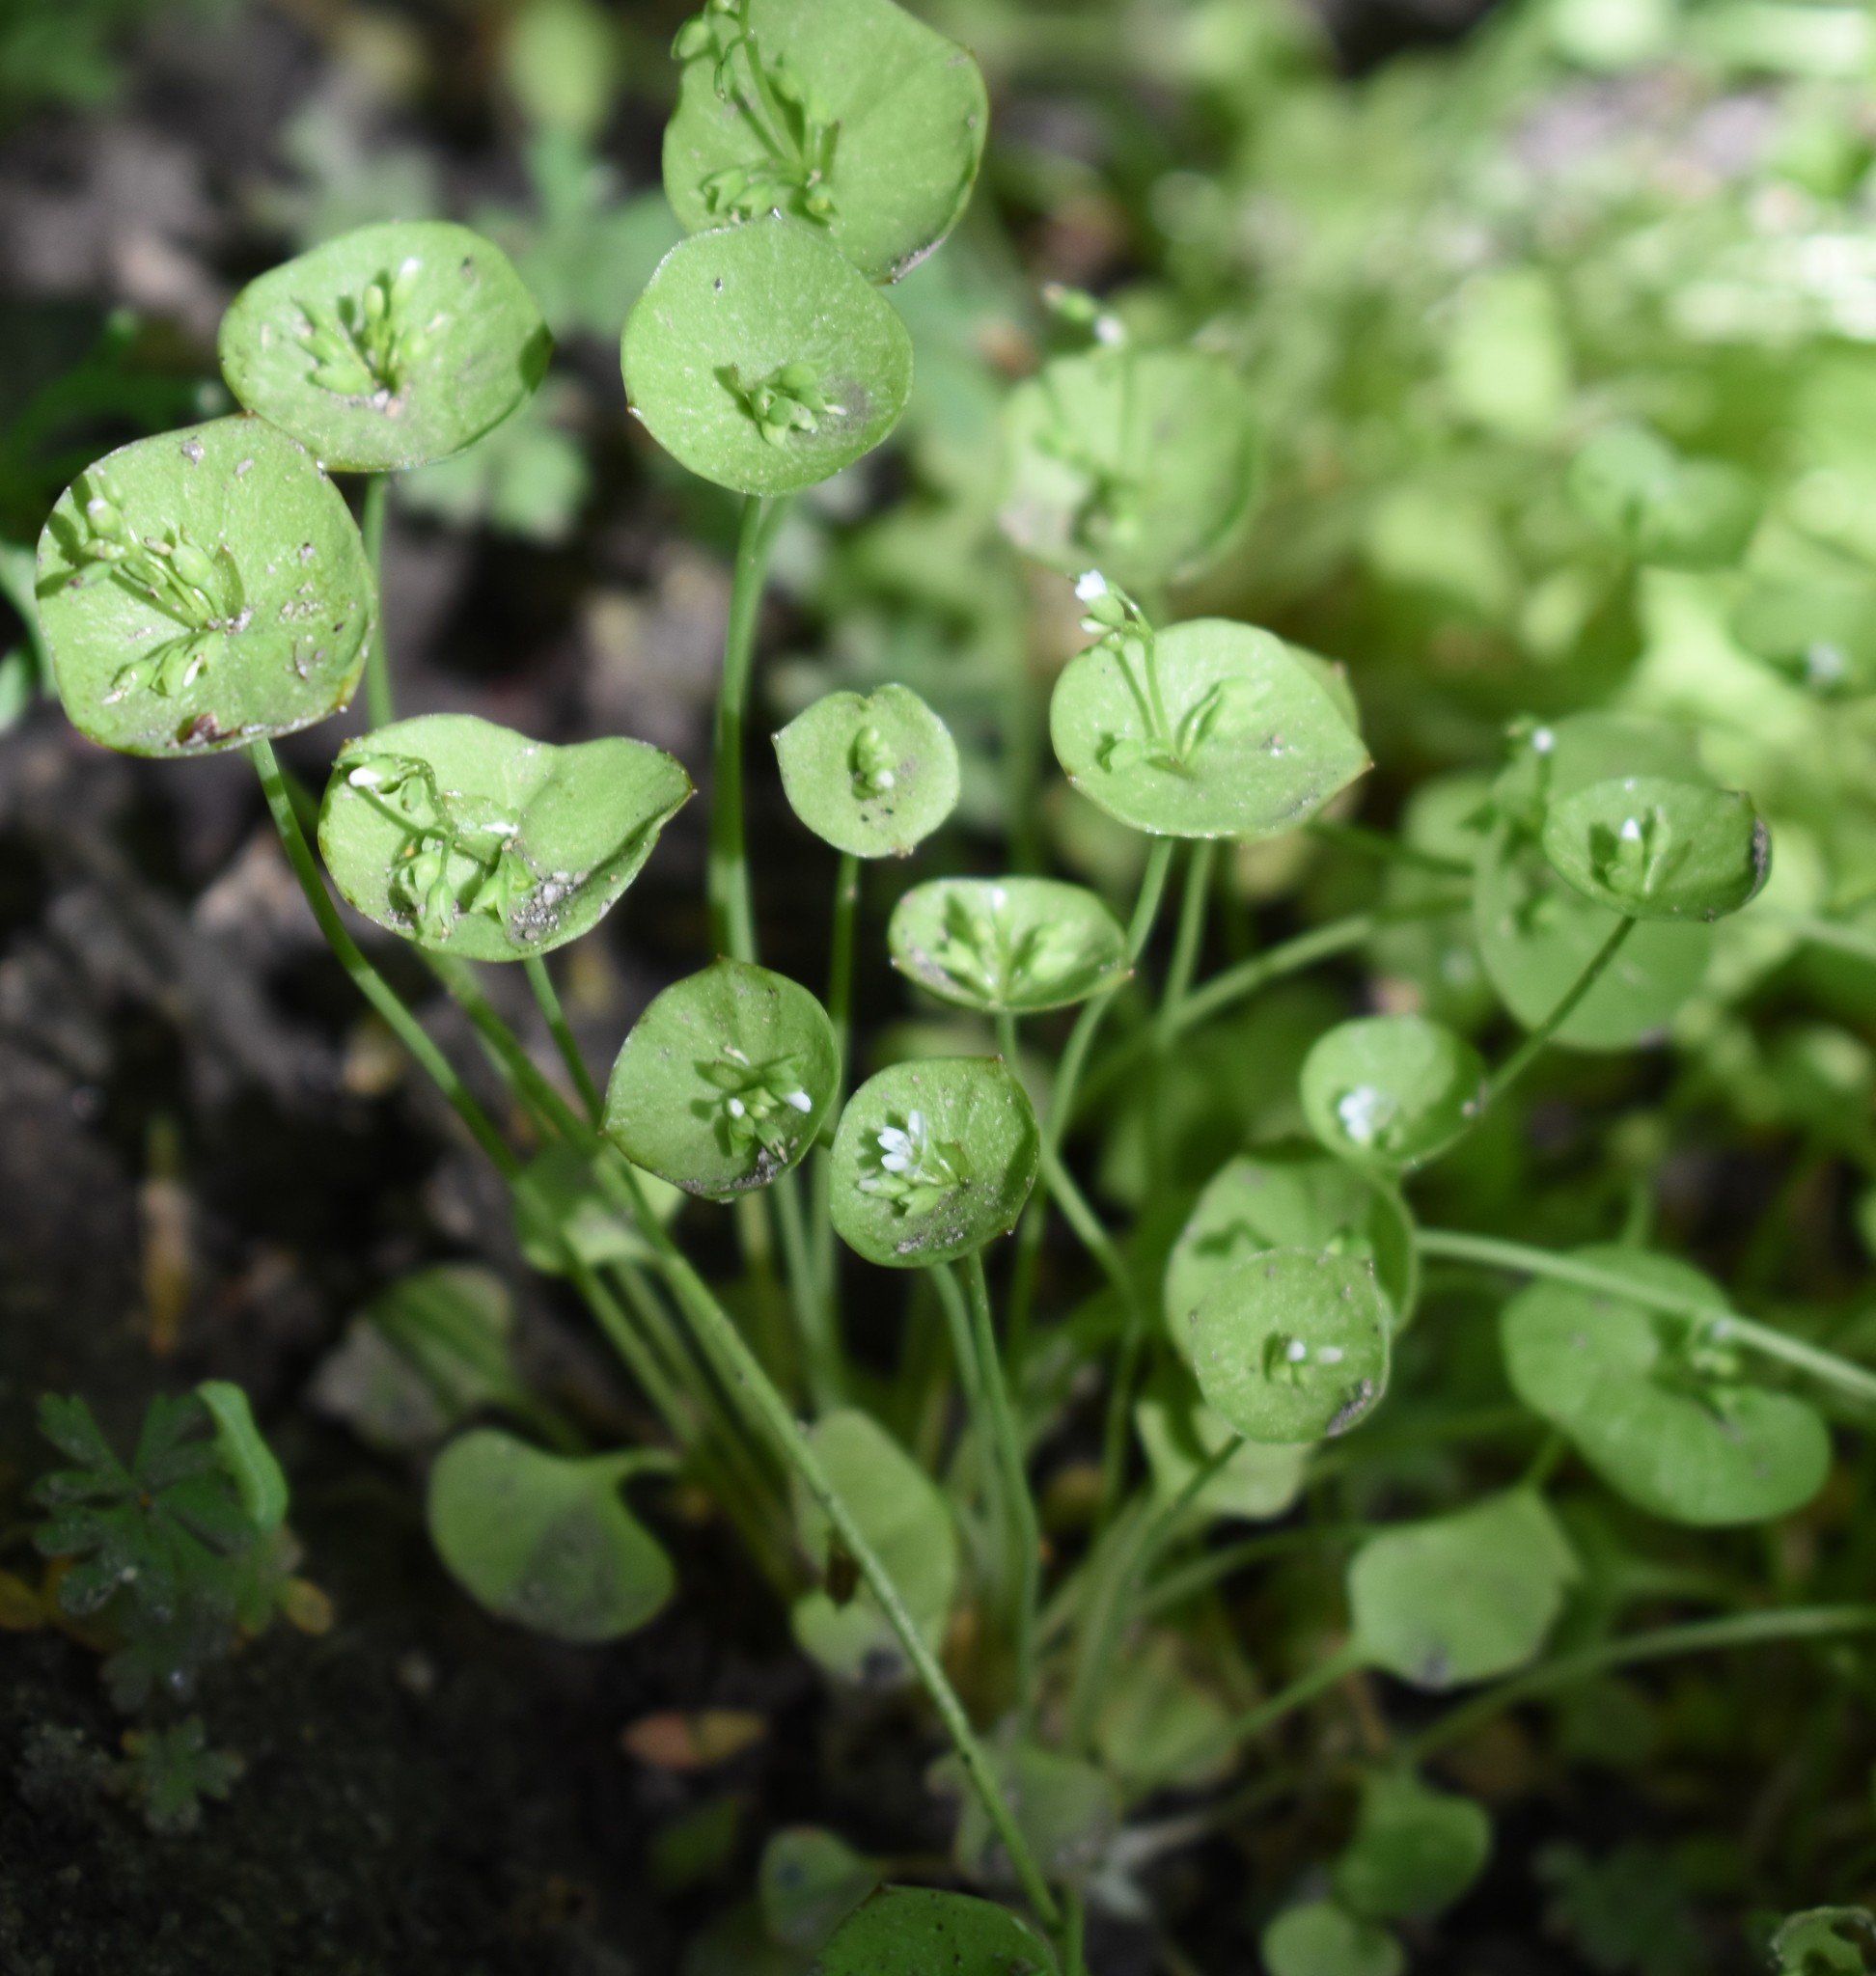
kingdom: Plantae
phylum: Tracheophyta
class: Magnoliopsida
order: Caryophyllales
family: Montiaceae
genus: Claytonia
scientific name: Claytonia perfoliata
